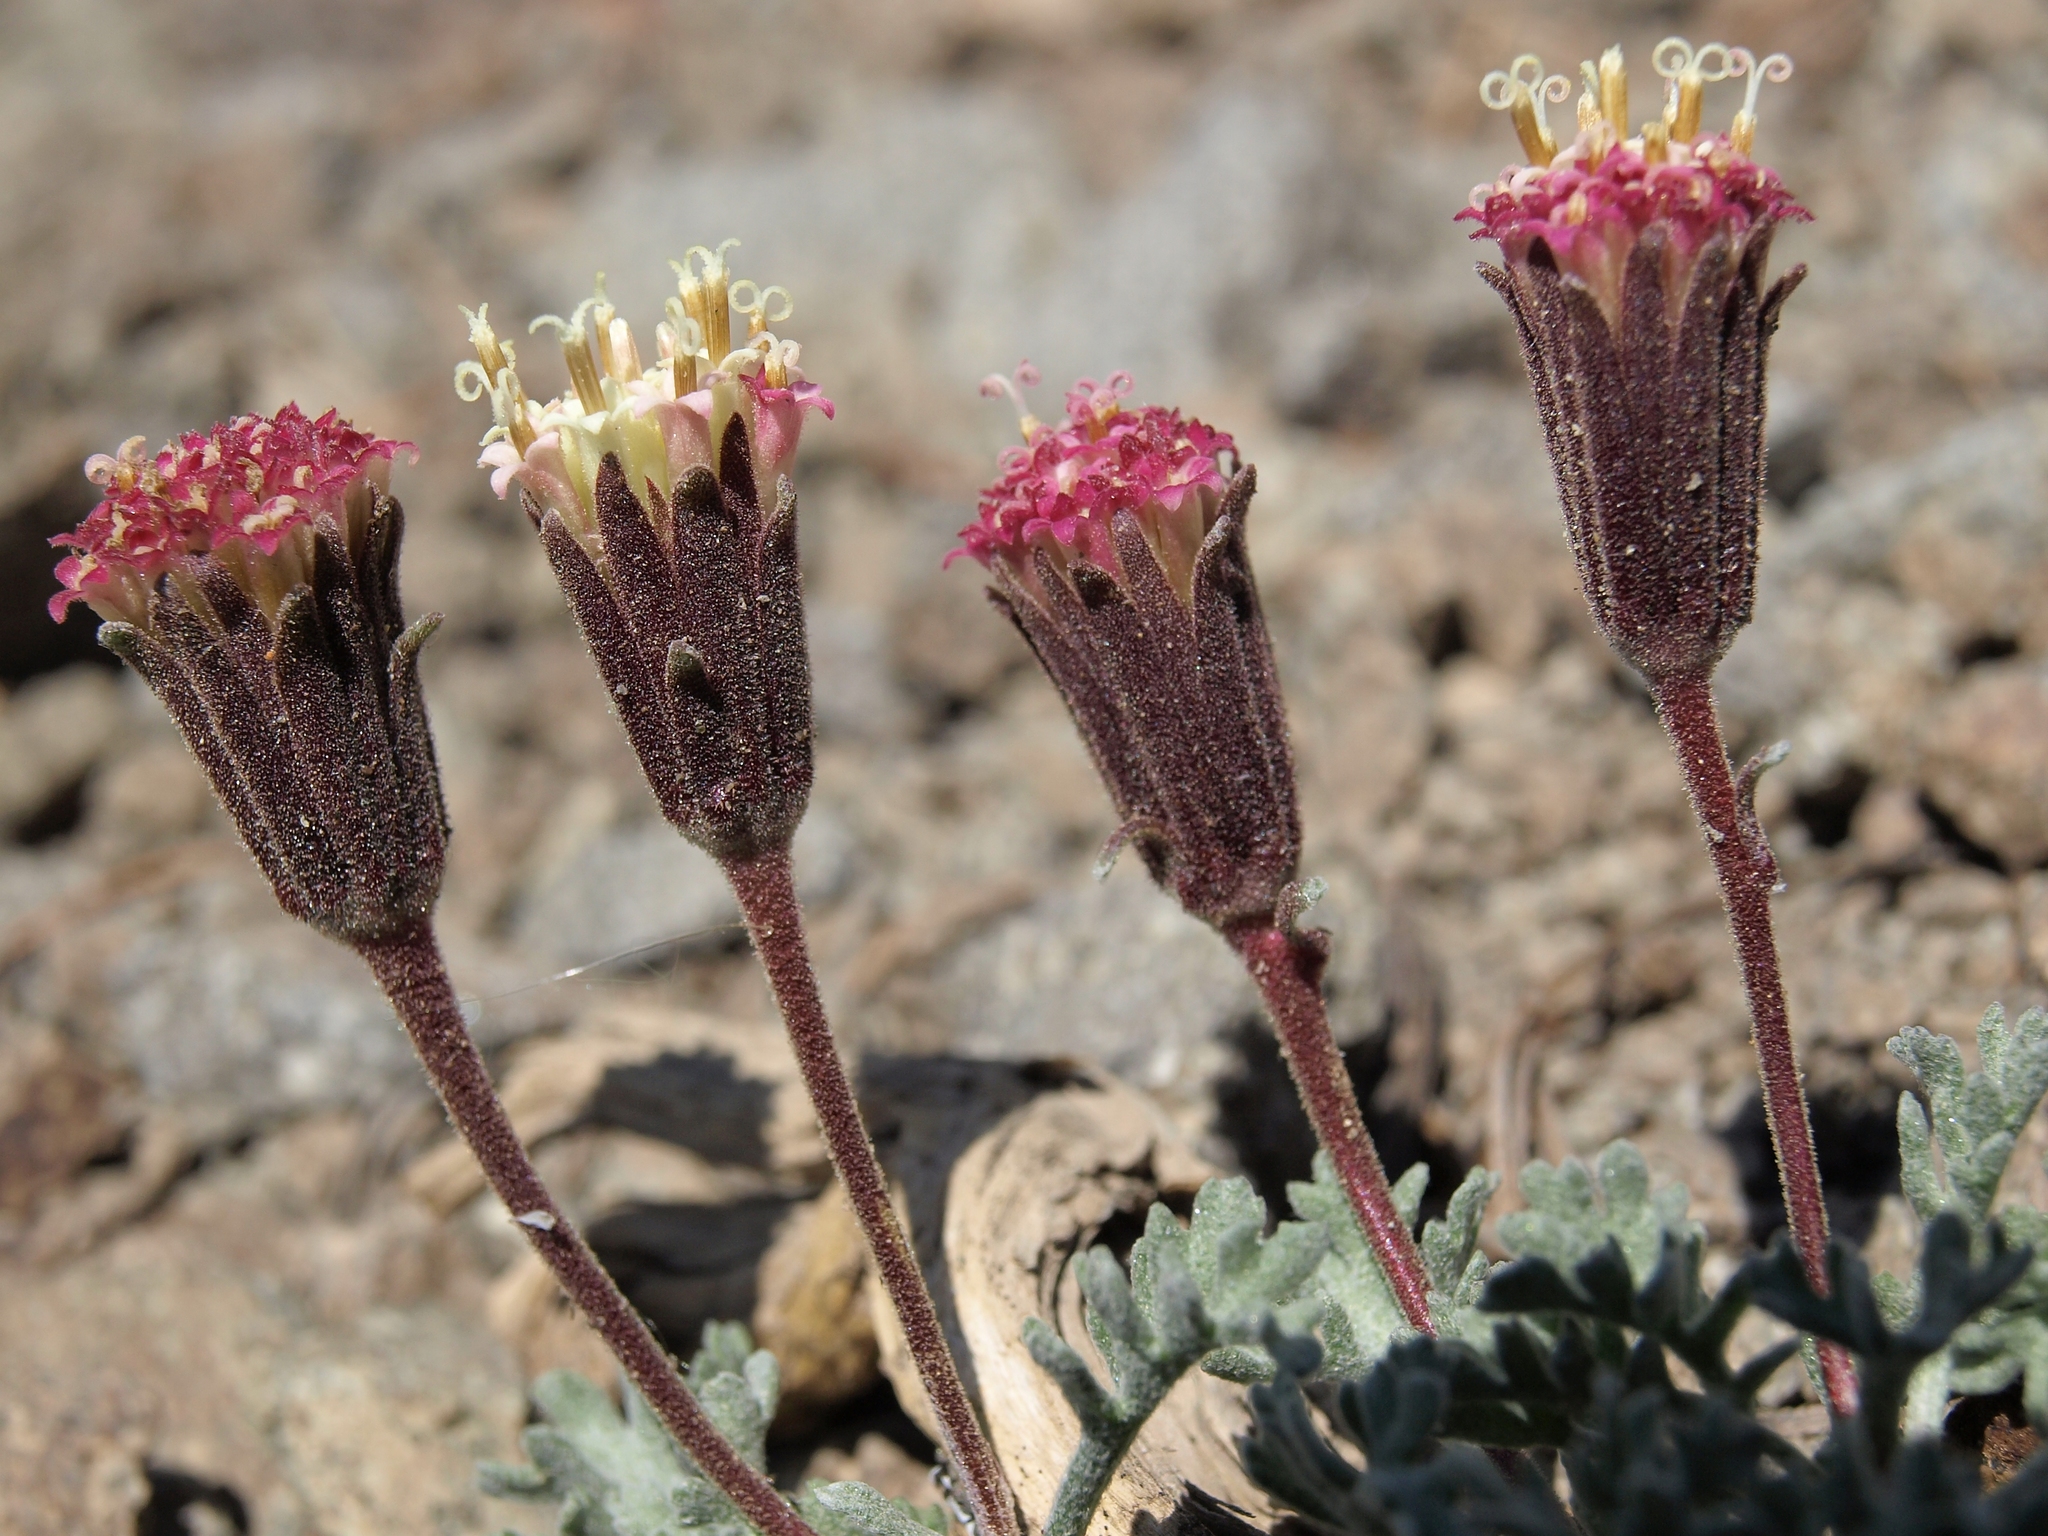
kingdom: Plantae
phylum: Tracheophyta
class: Magnoliopsida
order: Asterales
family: Asteraceae
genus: Chaenactis
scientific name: Chaenactis nevadensis
